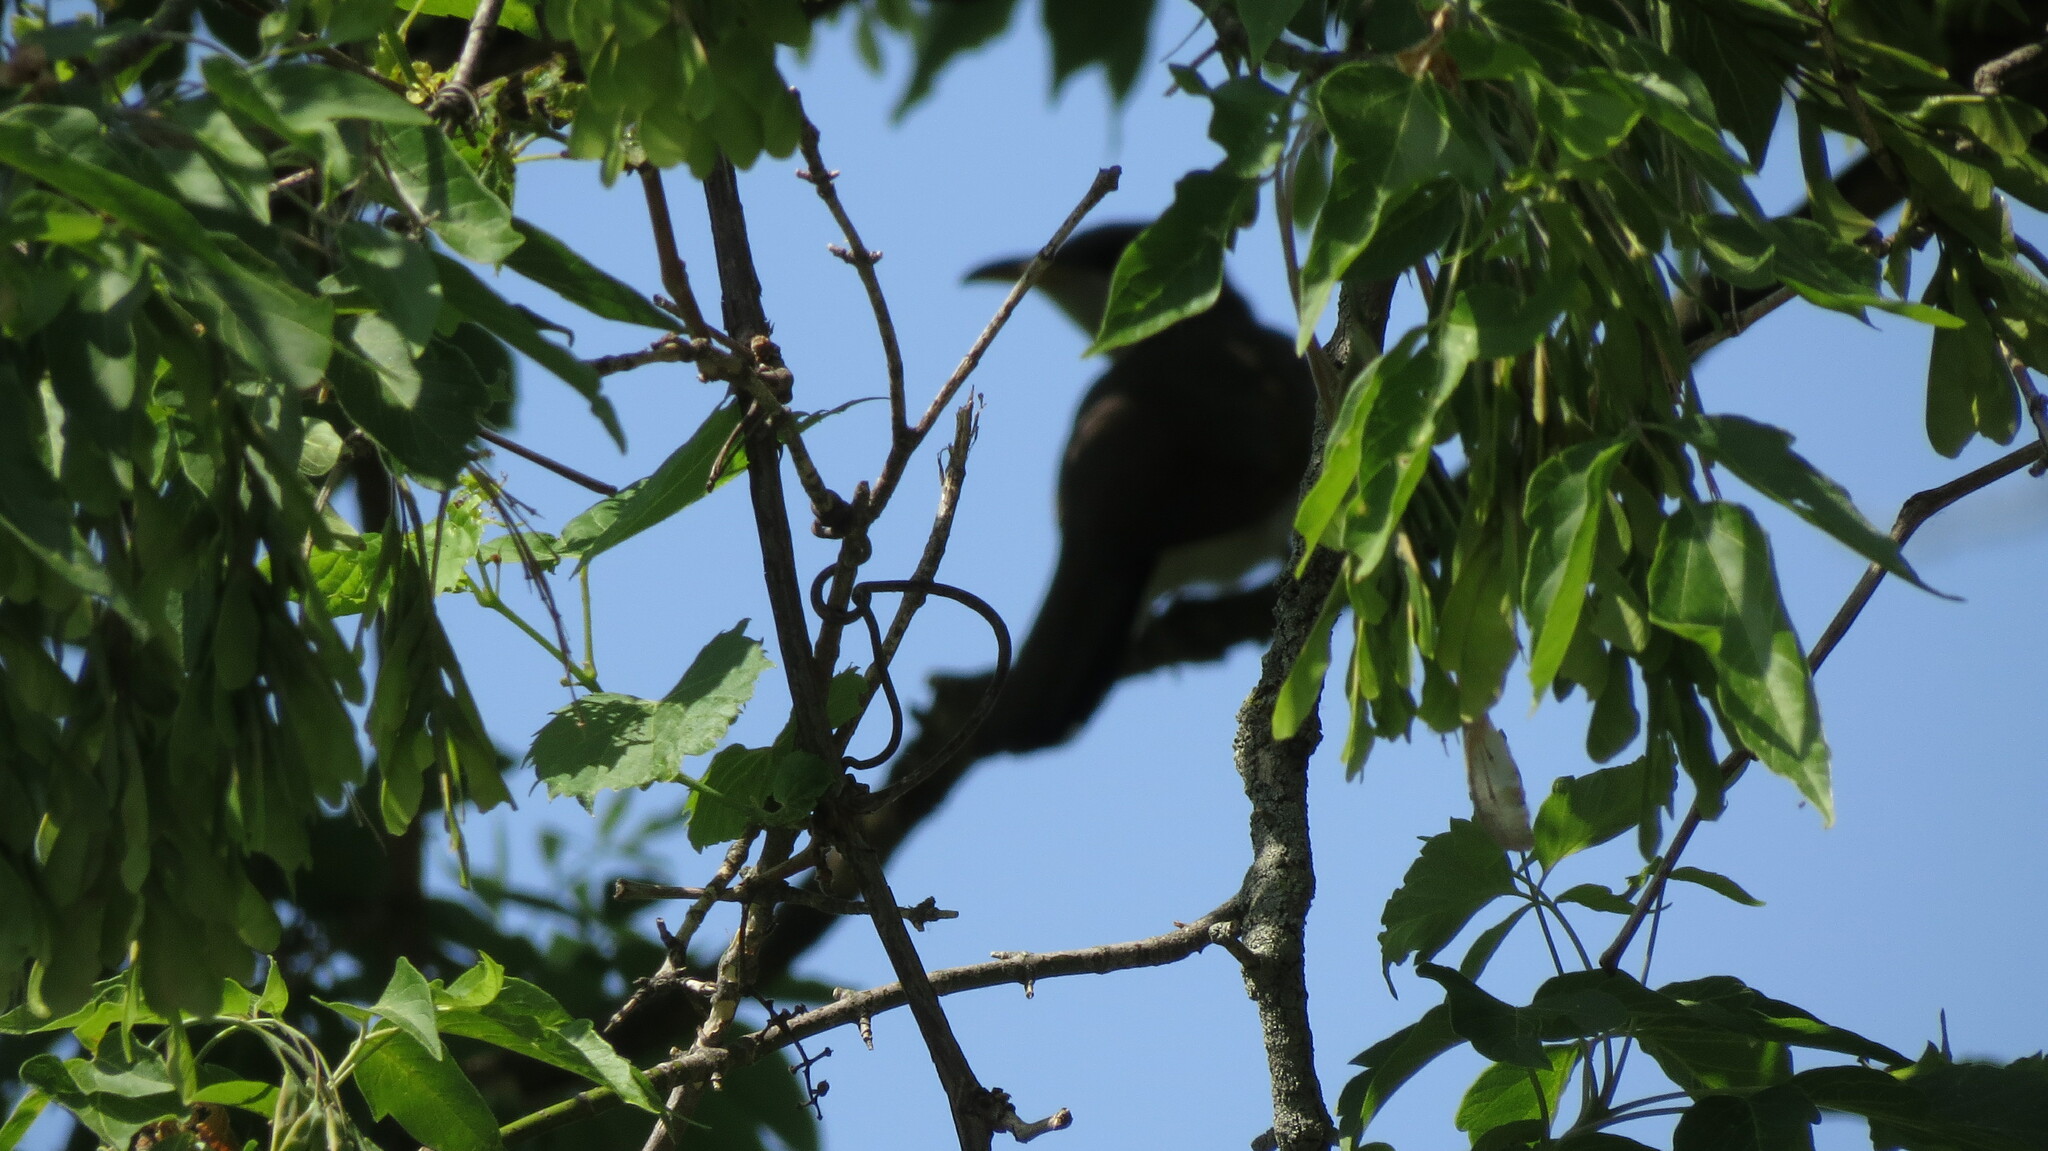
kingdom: Animalia
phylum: Chordata
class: Aves
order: Cuculiformes
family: Cuculidae
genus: Coccyzus
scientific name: Coccyzus americanus
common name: Yellow-billed cuckoo
